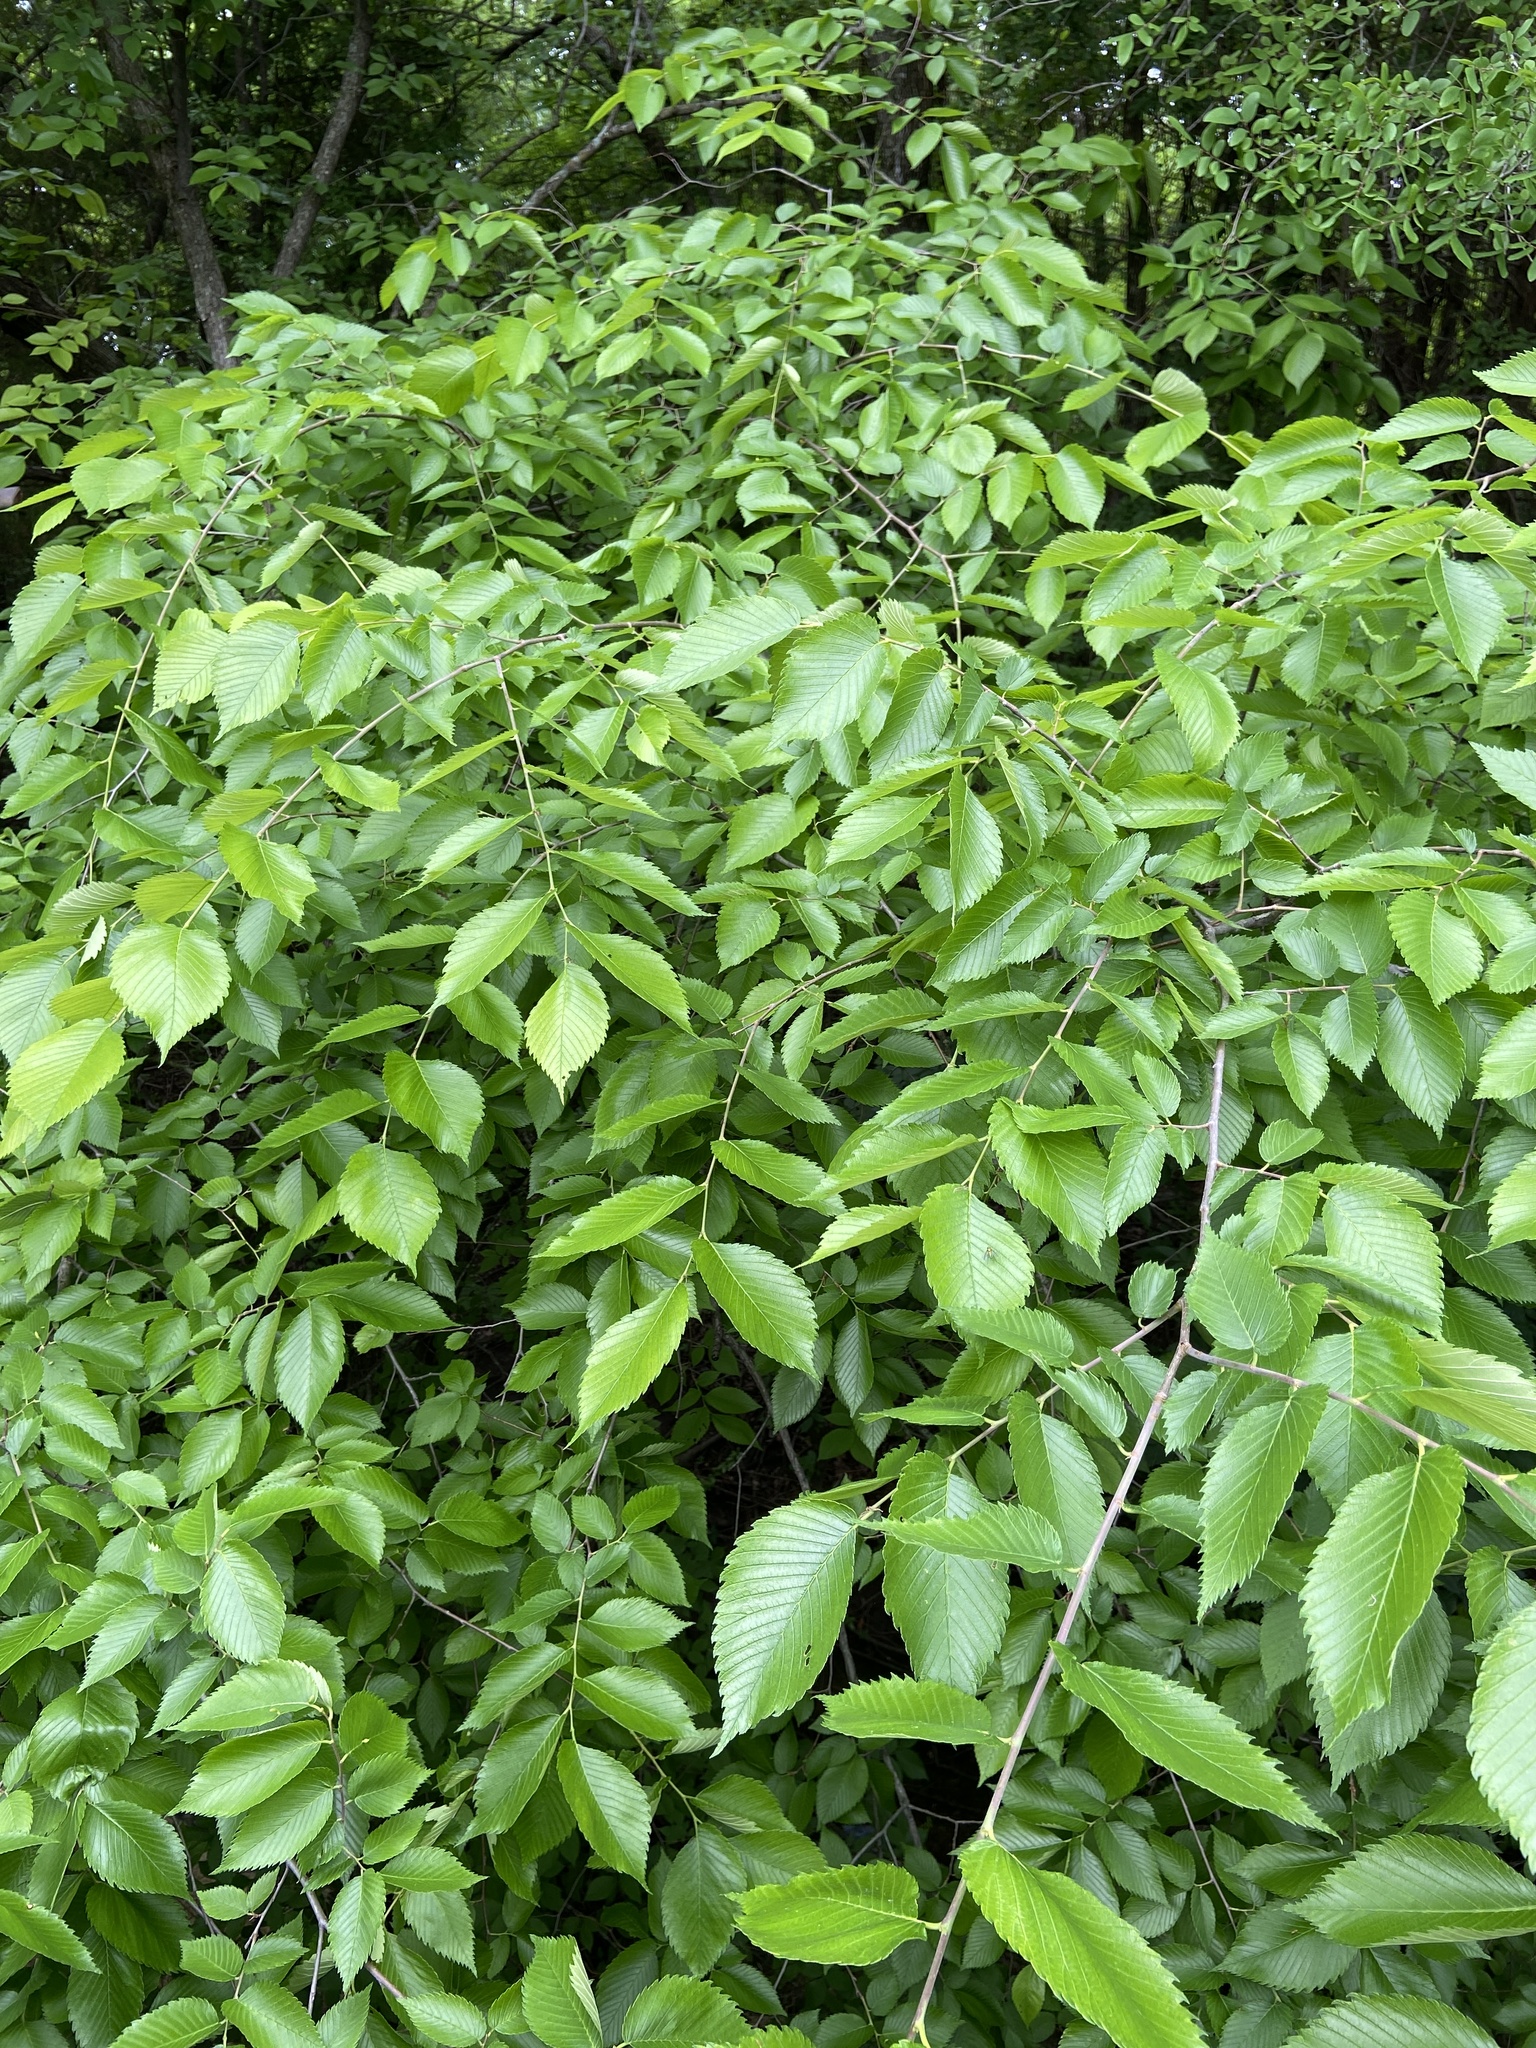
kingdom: Plantae
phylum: Tracheophyta
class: Magnoliopsida
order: Rosales
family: Ulmaceae
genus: Ulmus
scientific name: Ulmus americana
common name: American elm
